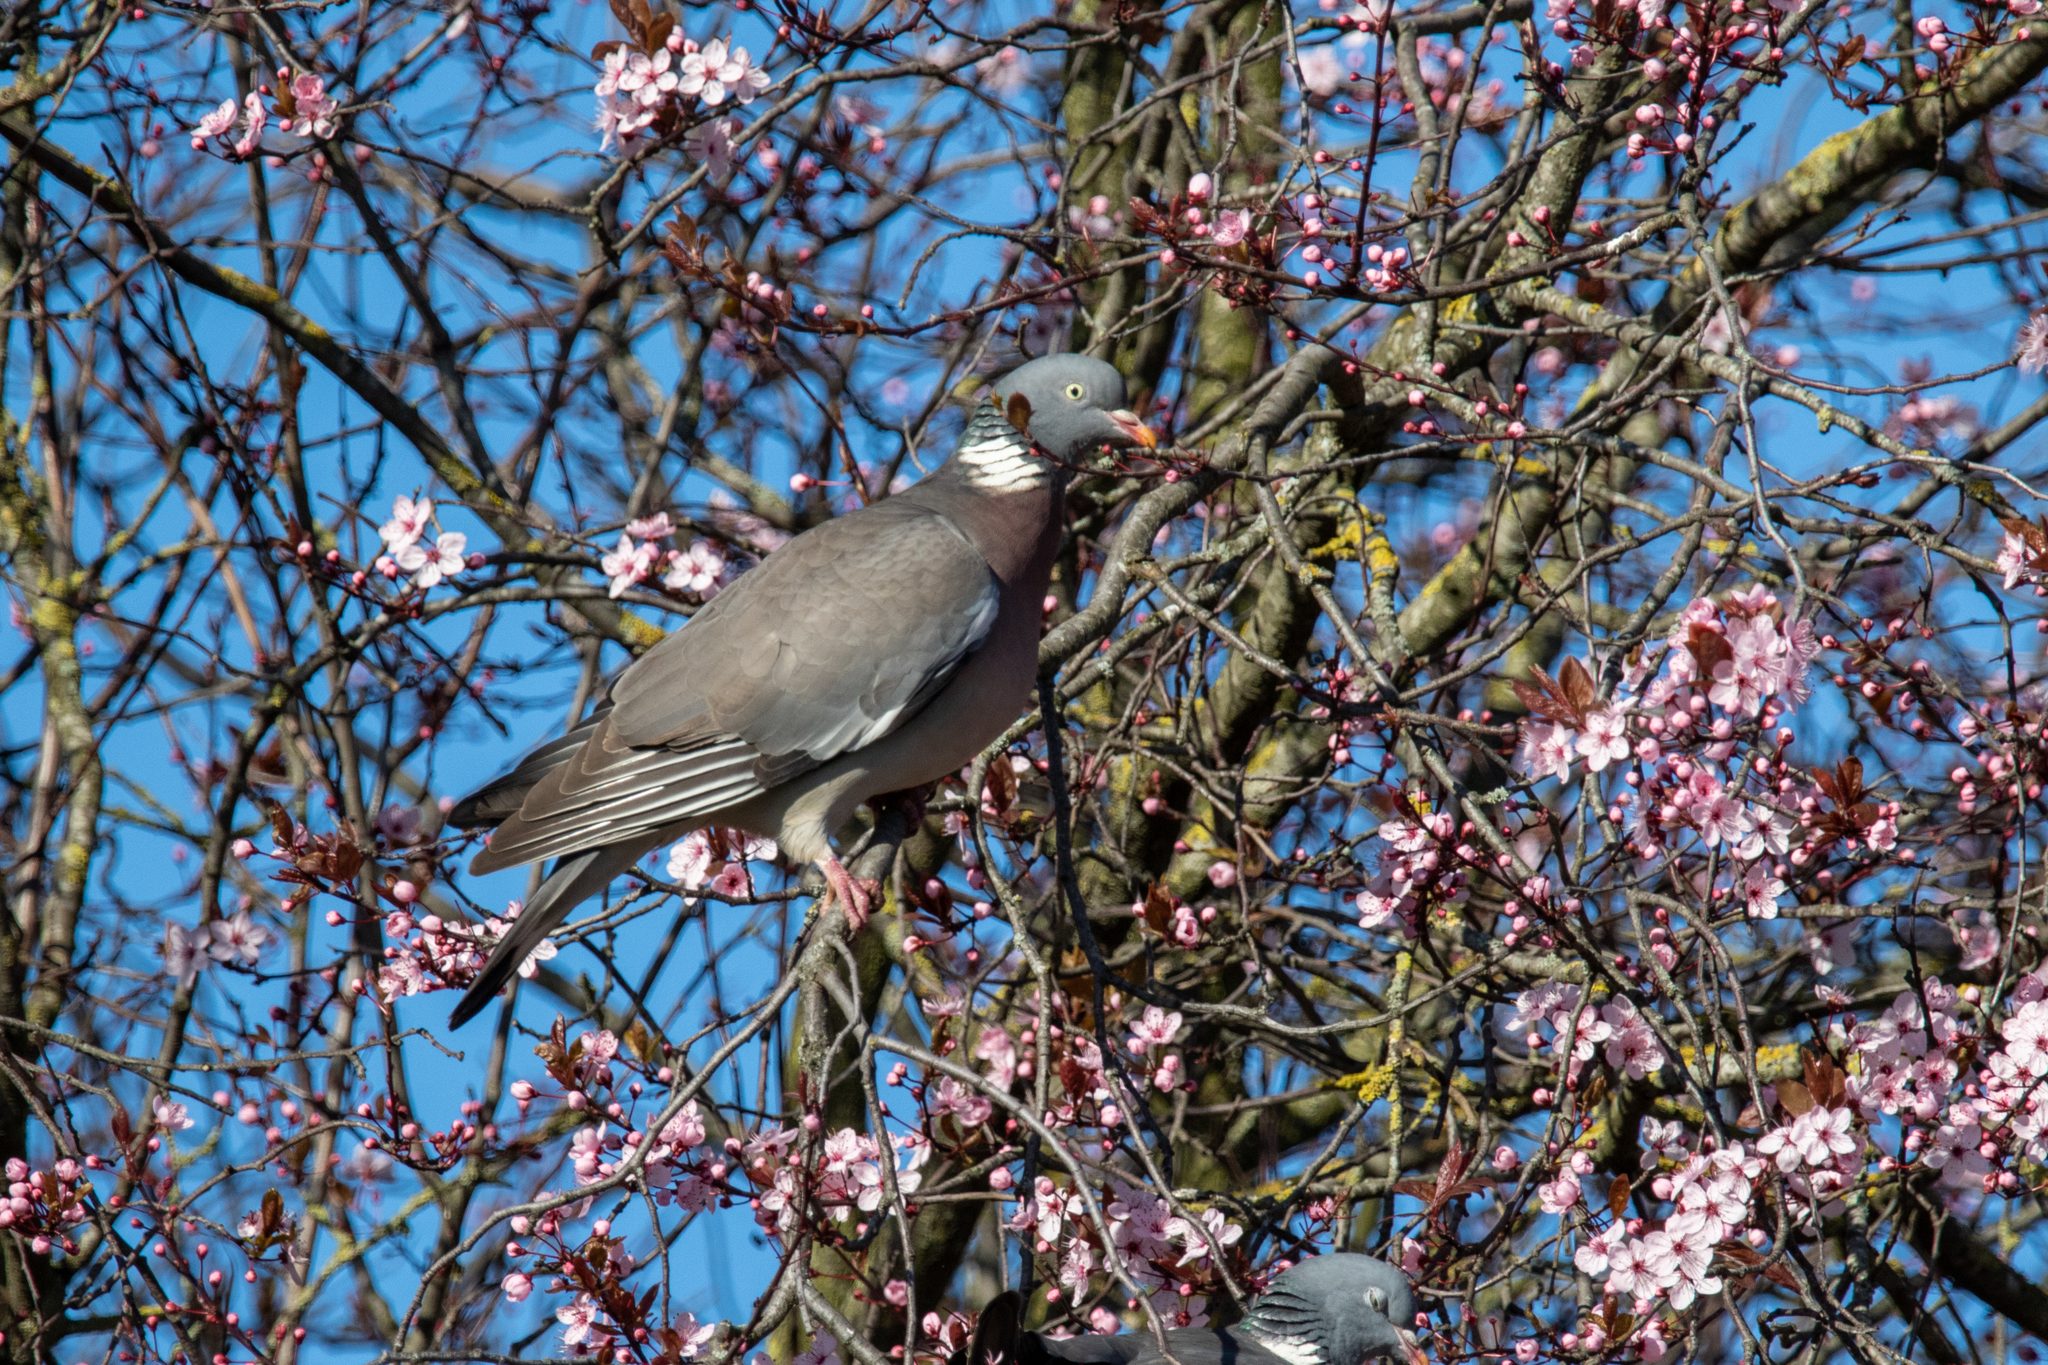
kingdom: Animalia
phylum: Chordata
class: Aves
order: Columbiformes
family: Columbidae
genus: Columba
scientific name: Columba palumbus
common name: Common wood pigeon
